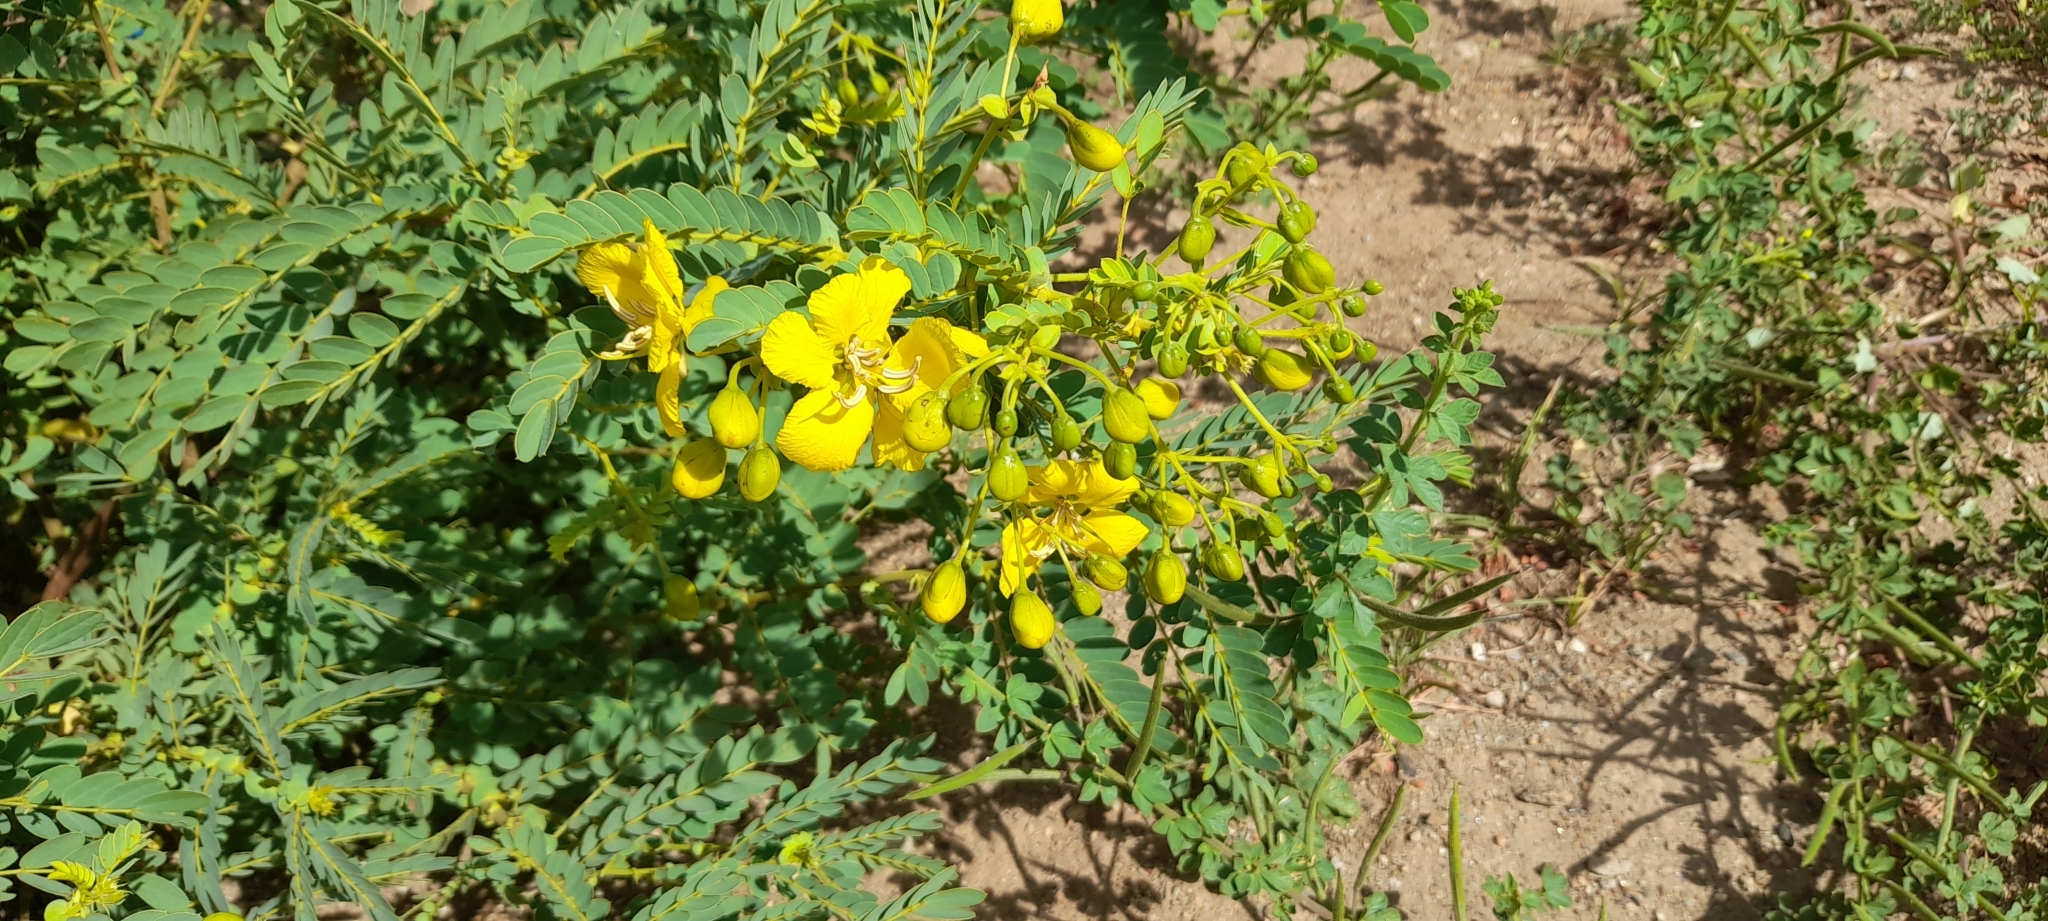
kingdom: Plantae
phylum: Tracheophyta
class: Magnoliopsida
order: Fabales
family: Fabaceae
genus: Senna
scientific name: Senna auriculata
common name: Tanner's cassia
